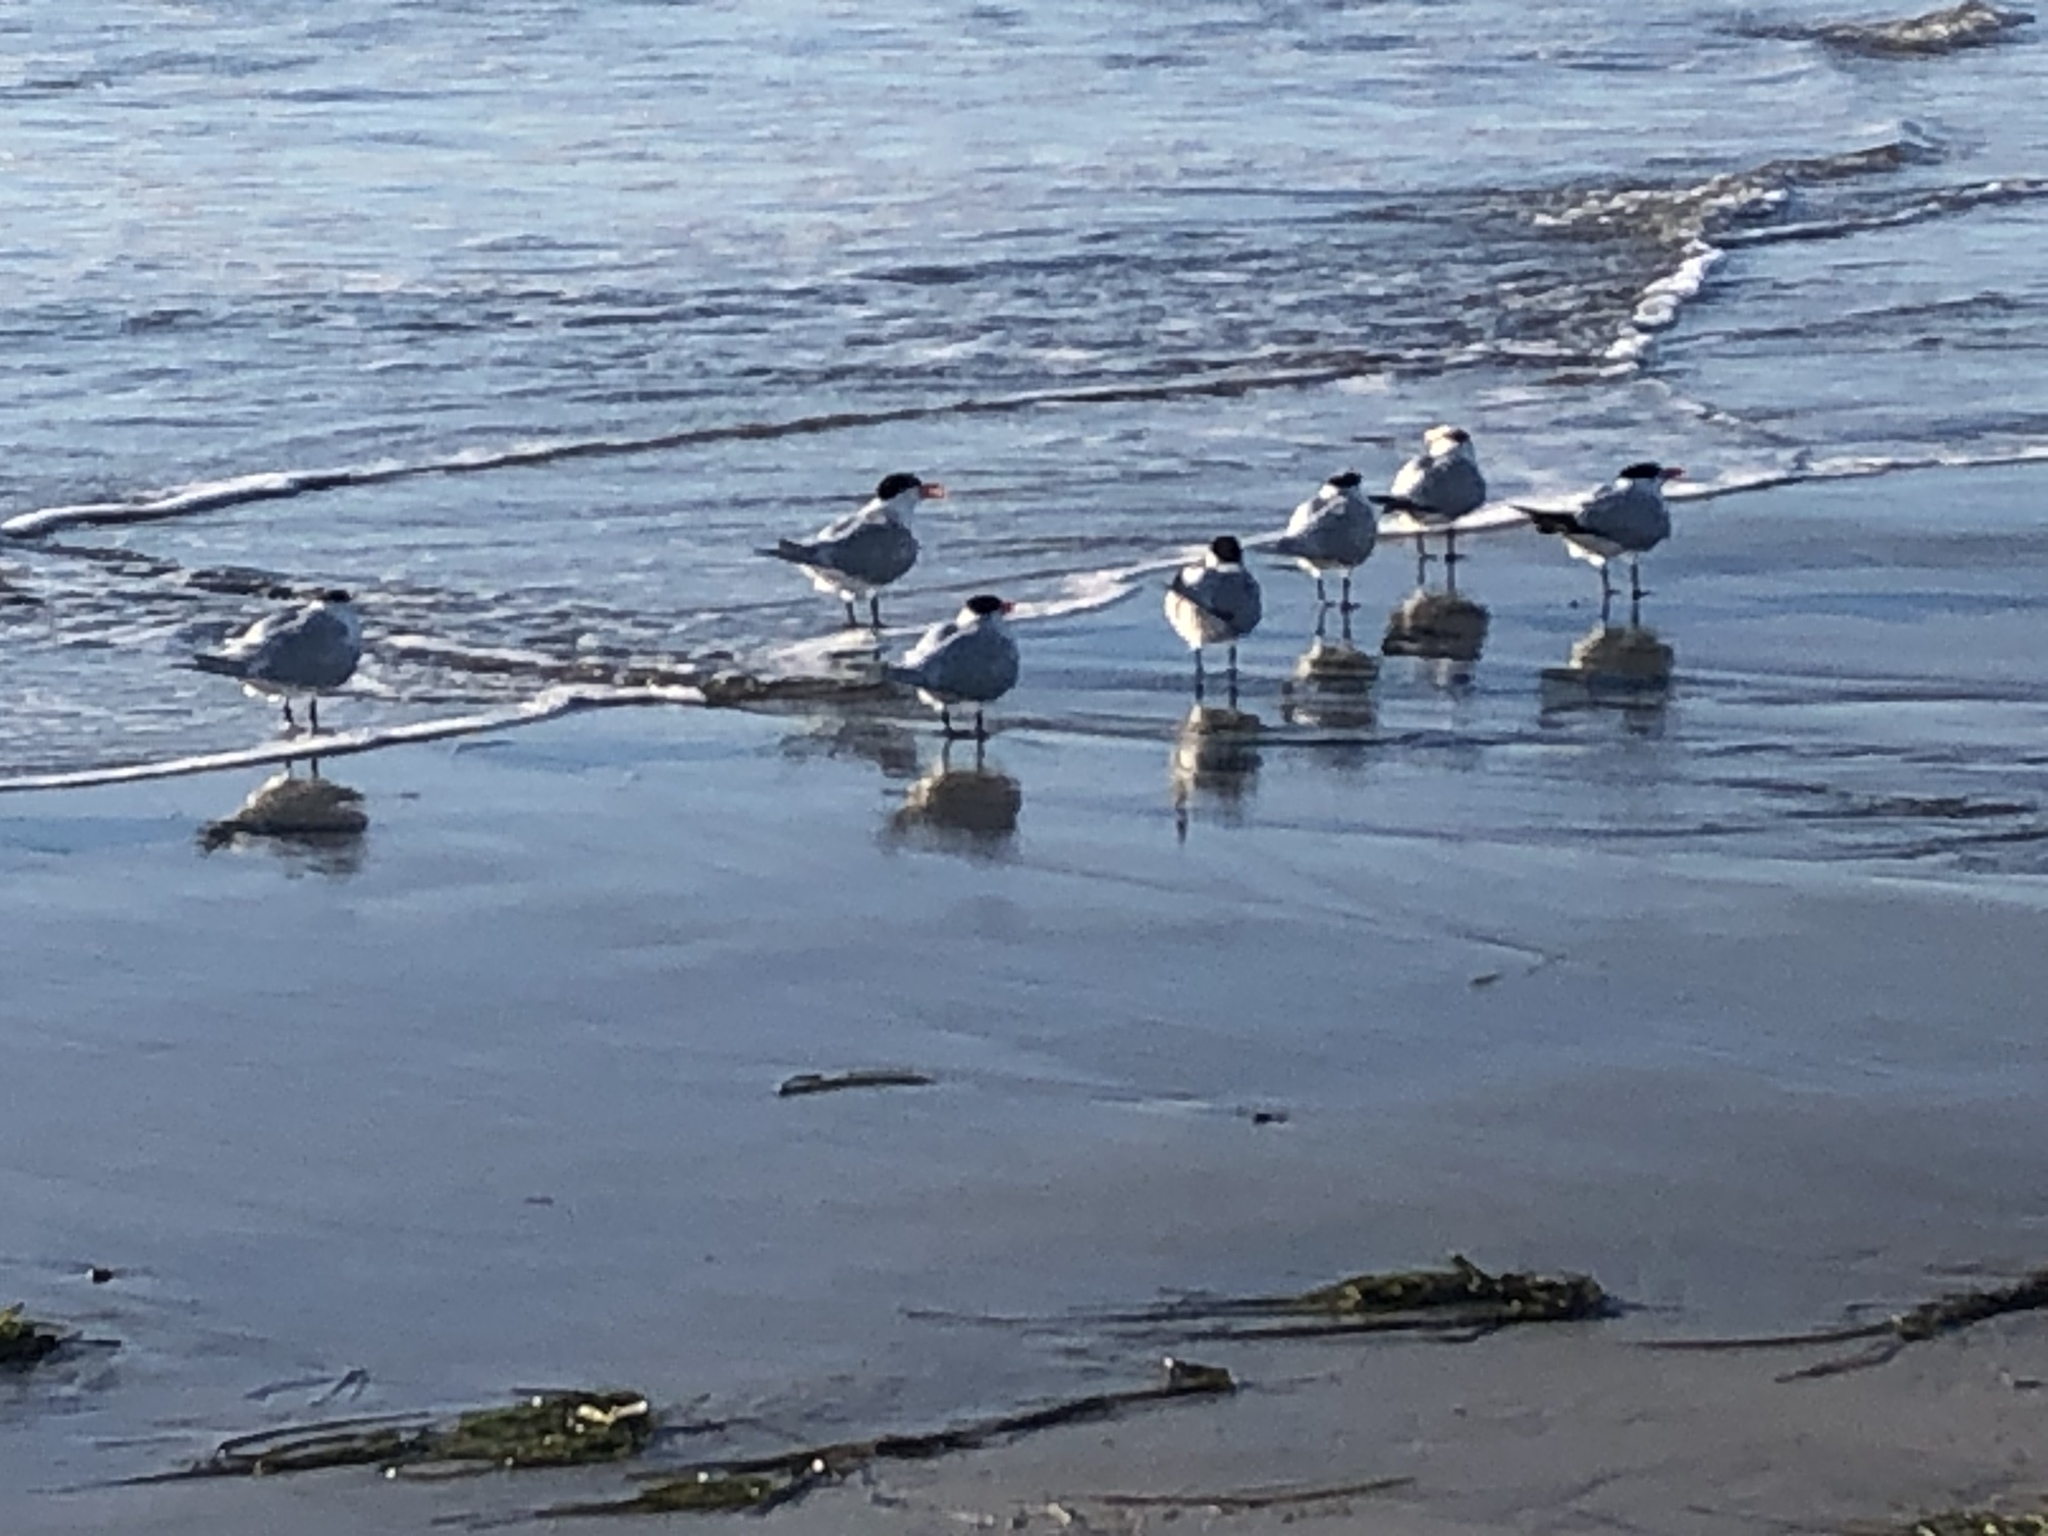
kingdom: Animalia
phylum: Chordata
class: Aves
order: Charadriiformes
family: Laridae
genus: Thalasseus
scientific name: Thalasseus maximus
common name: Royal tern
